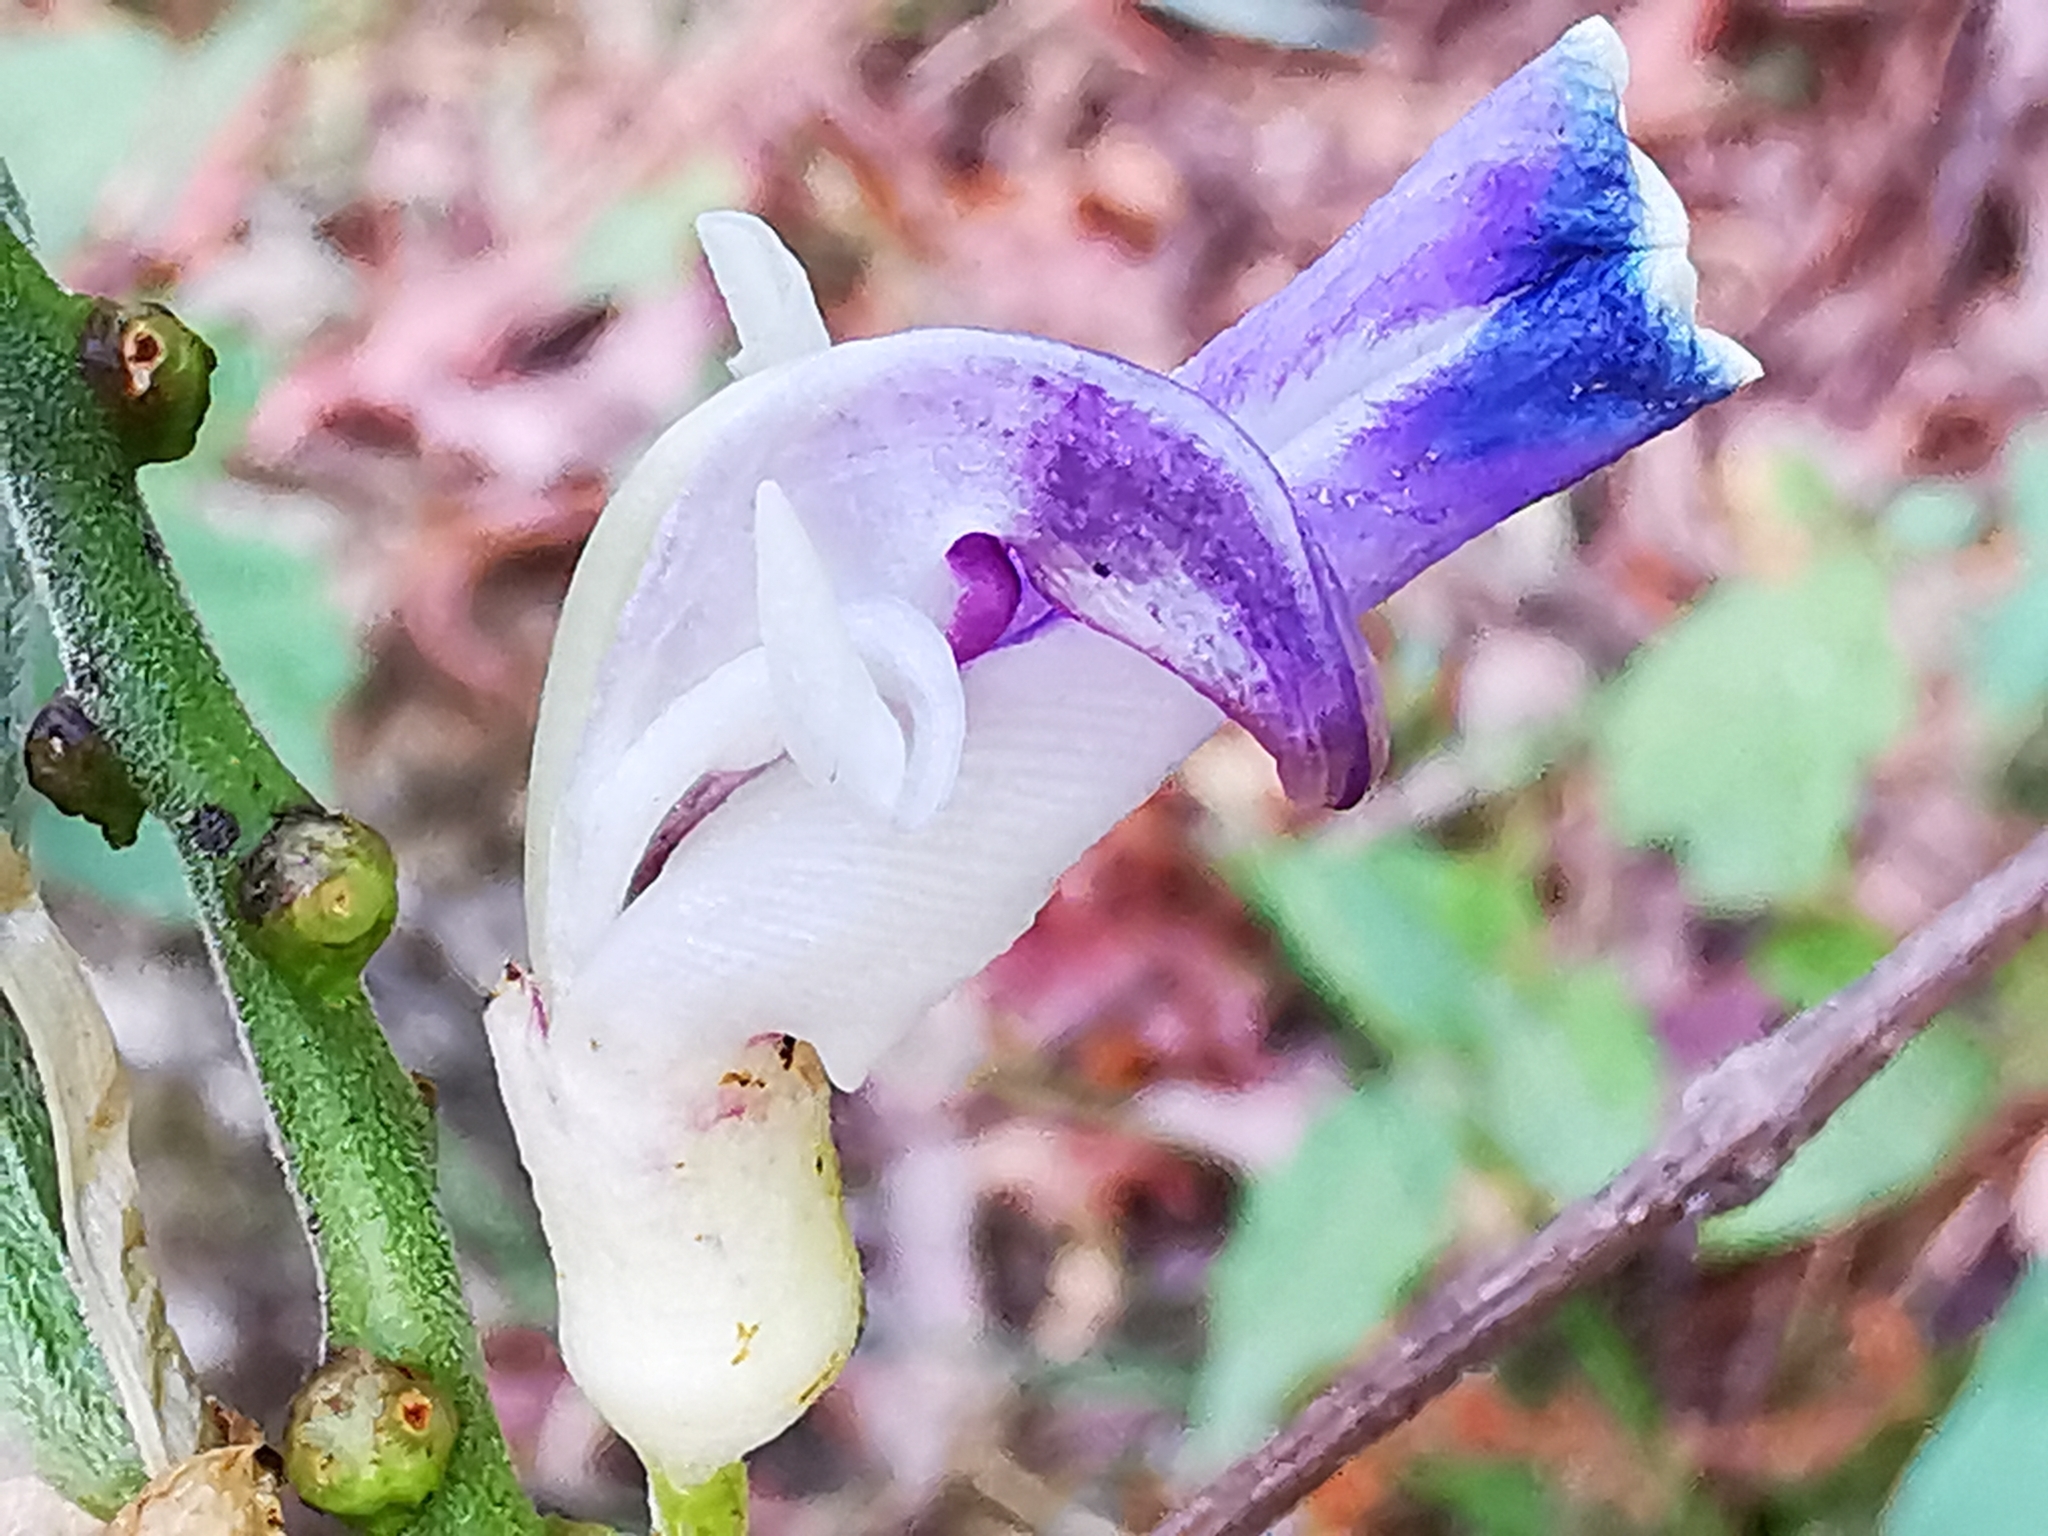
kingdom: Plantae
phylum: Tracheophyta
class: Magnoliopsida
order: Fabales
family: Fabaceae
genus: Canavalia
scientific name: Canavalia septentrionalis
